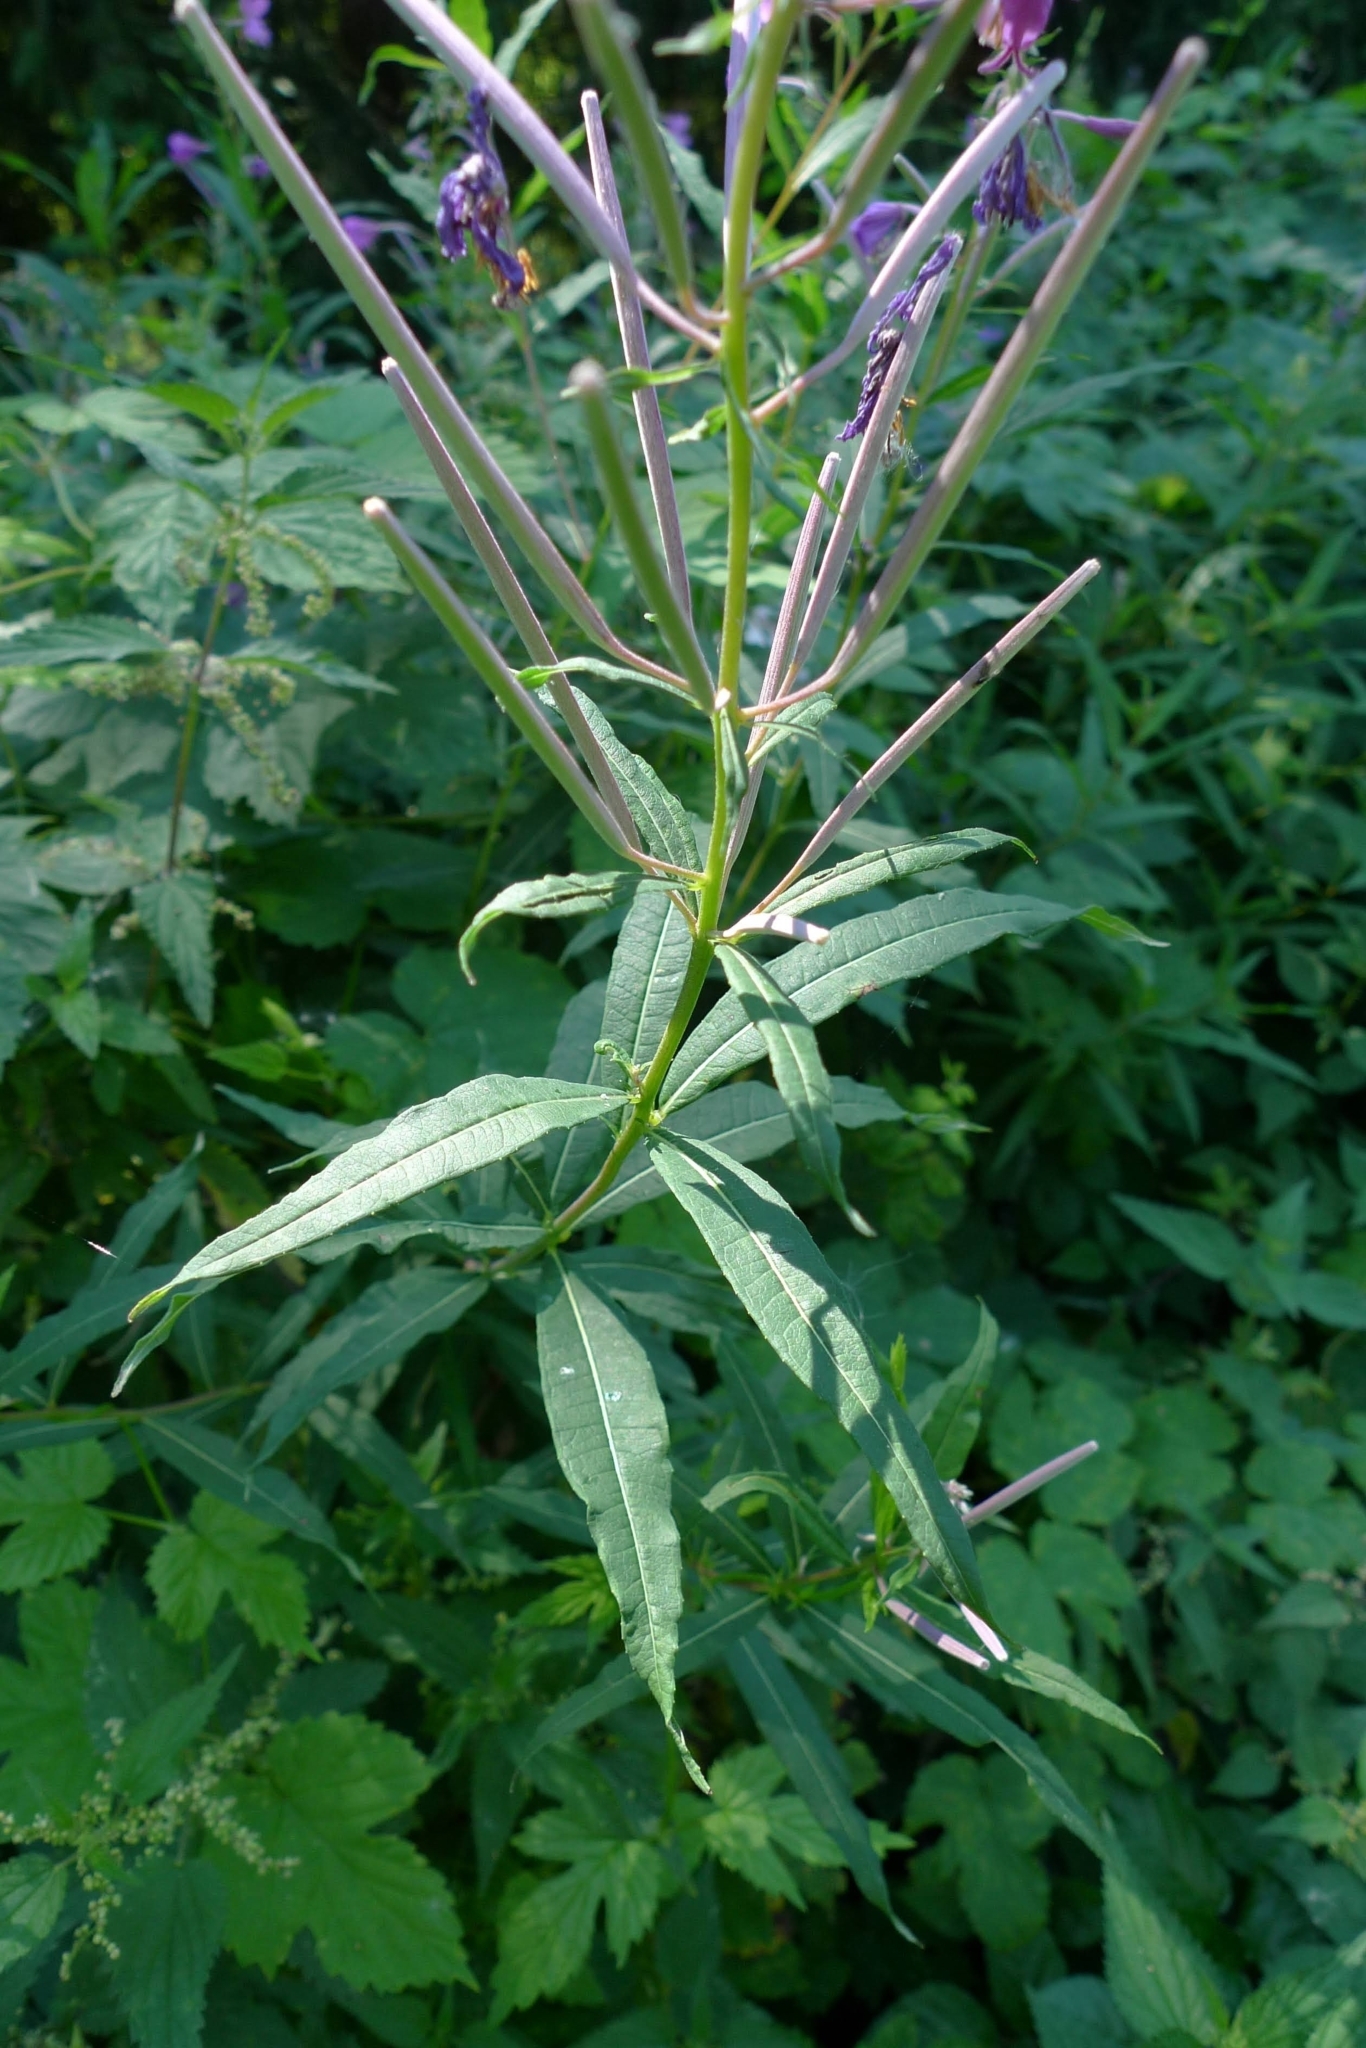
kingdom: Plantae
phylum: Tracheophyta
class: Magnoliopsida
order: Myrtales
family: Onagraceae
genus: Chamaenerion
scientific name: Chamaenerion angustifolium
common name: Fireweed
